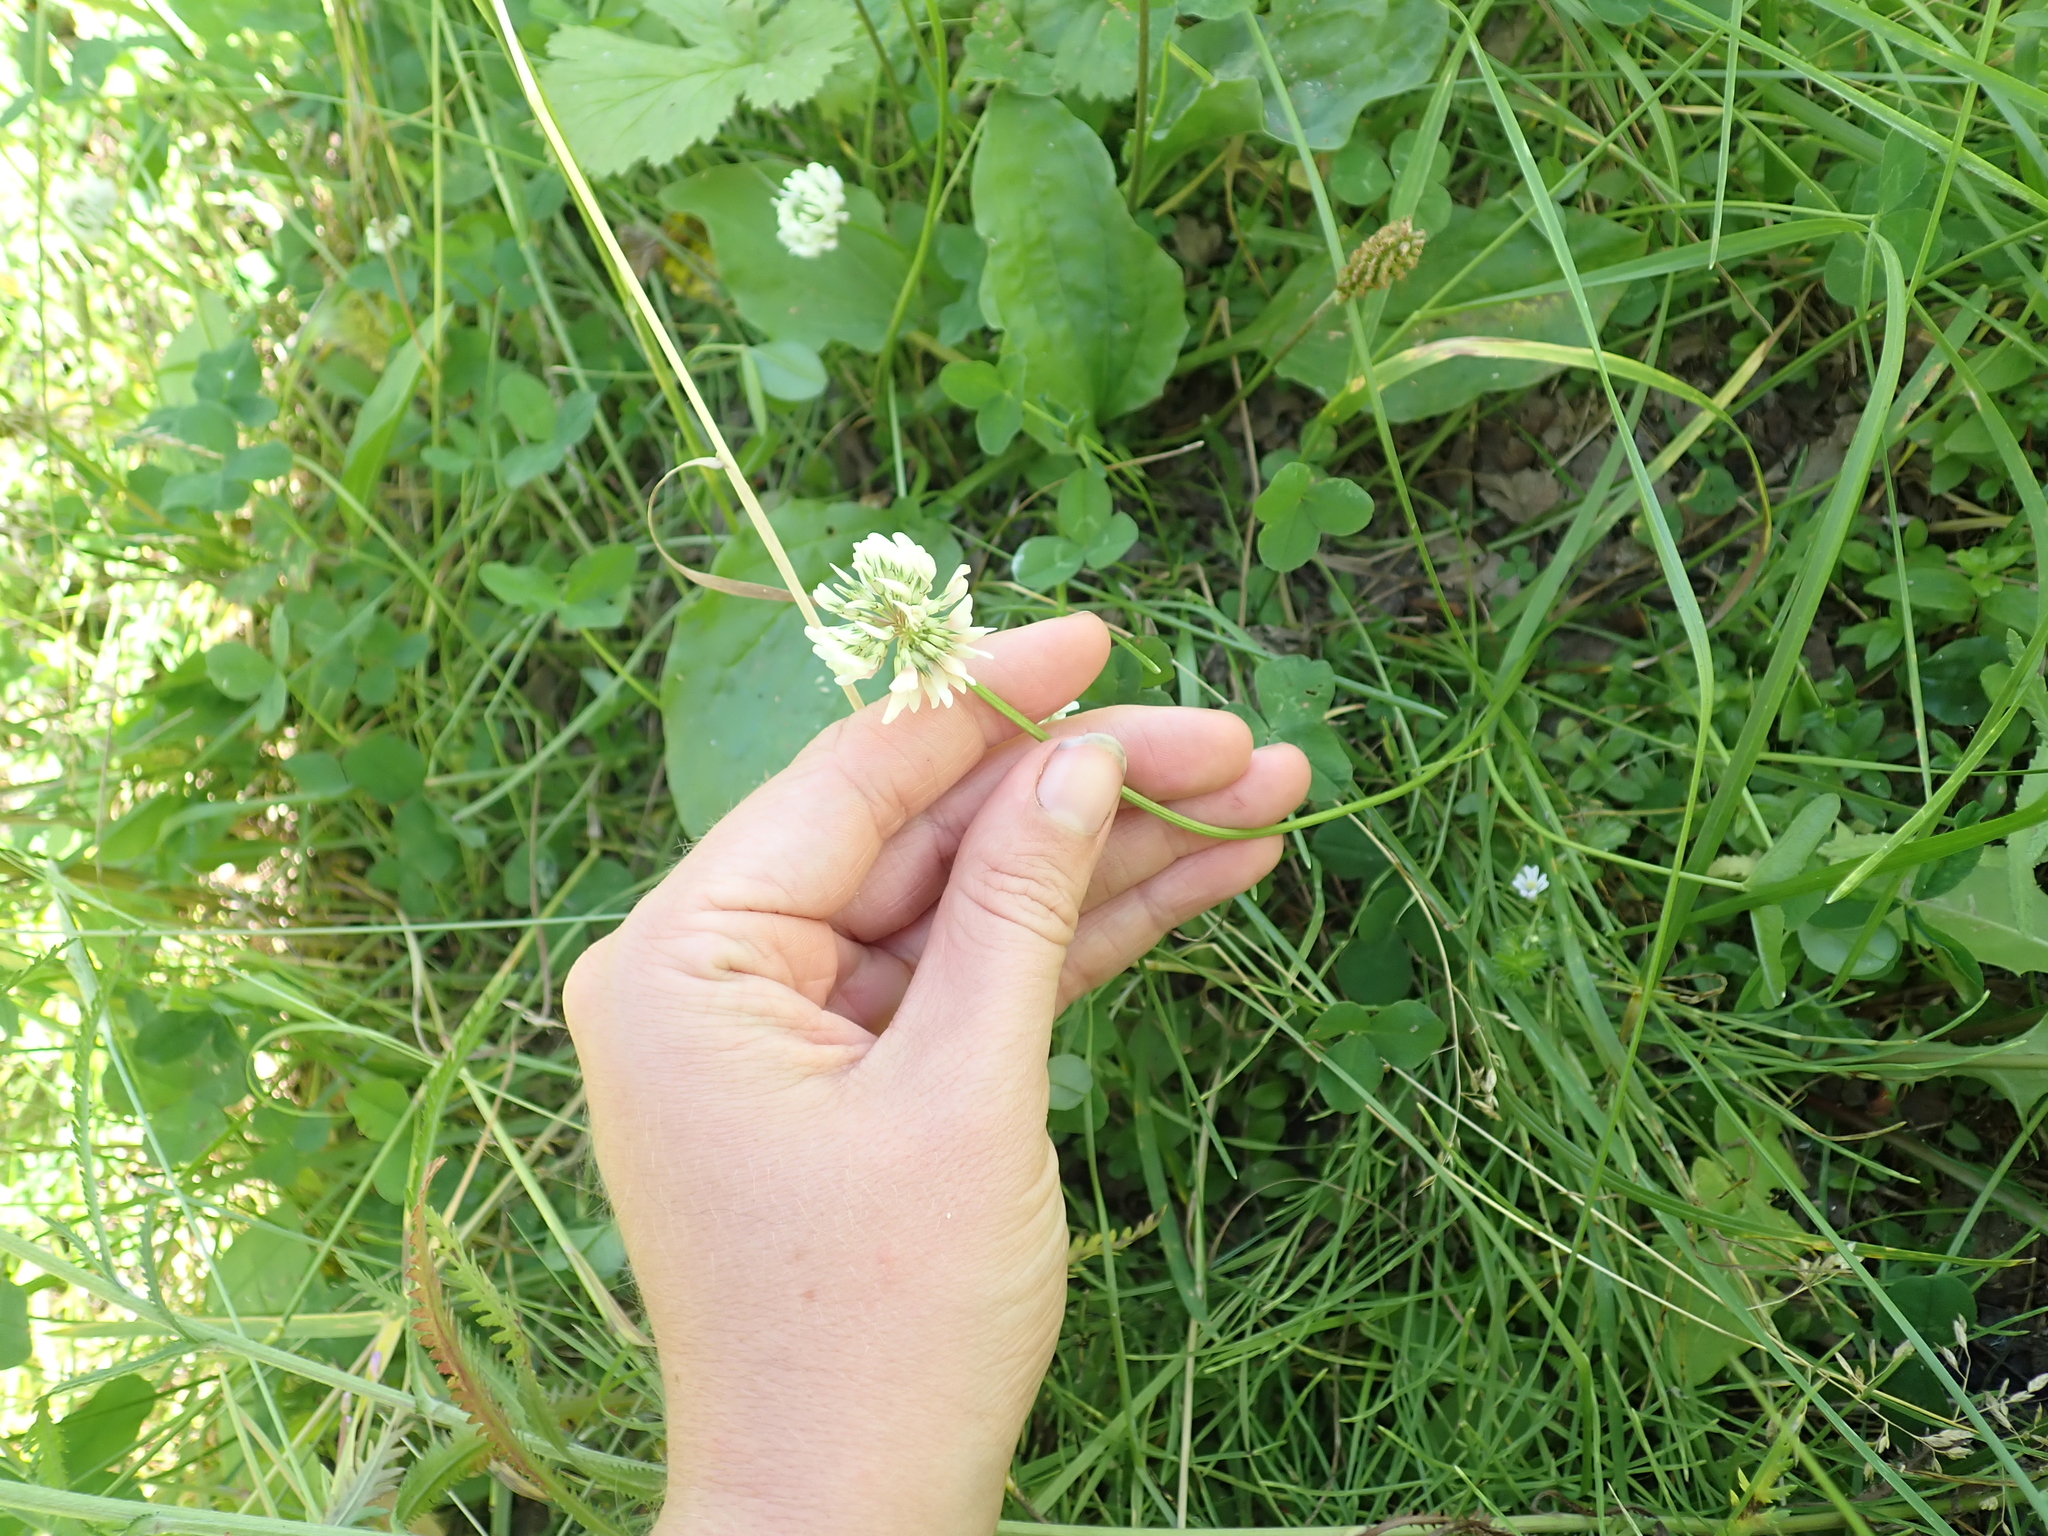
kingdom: Plantae
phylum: Tracheophyta
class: Magnoliopsida
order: Fabales
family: Fabaceae
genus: Trifolium
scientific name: Trifolium repens
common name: White clover
